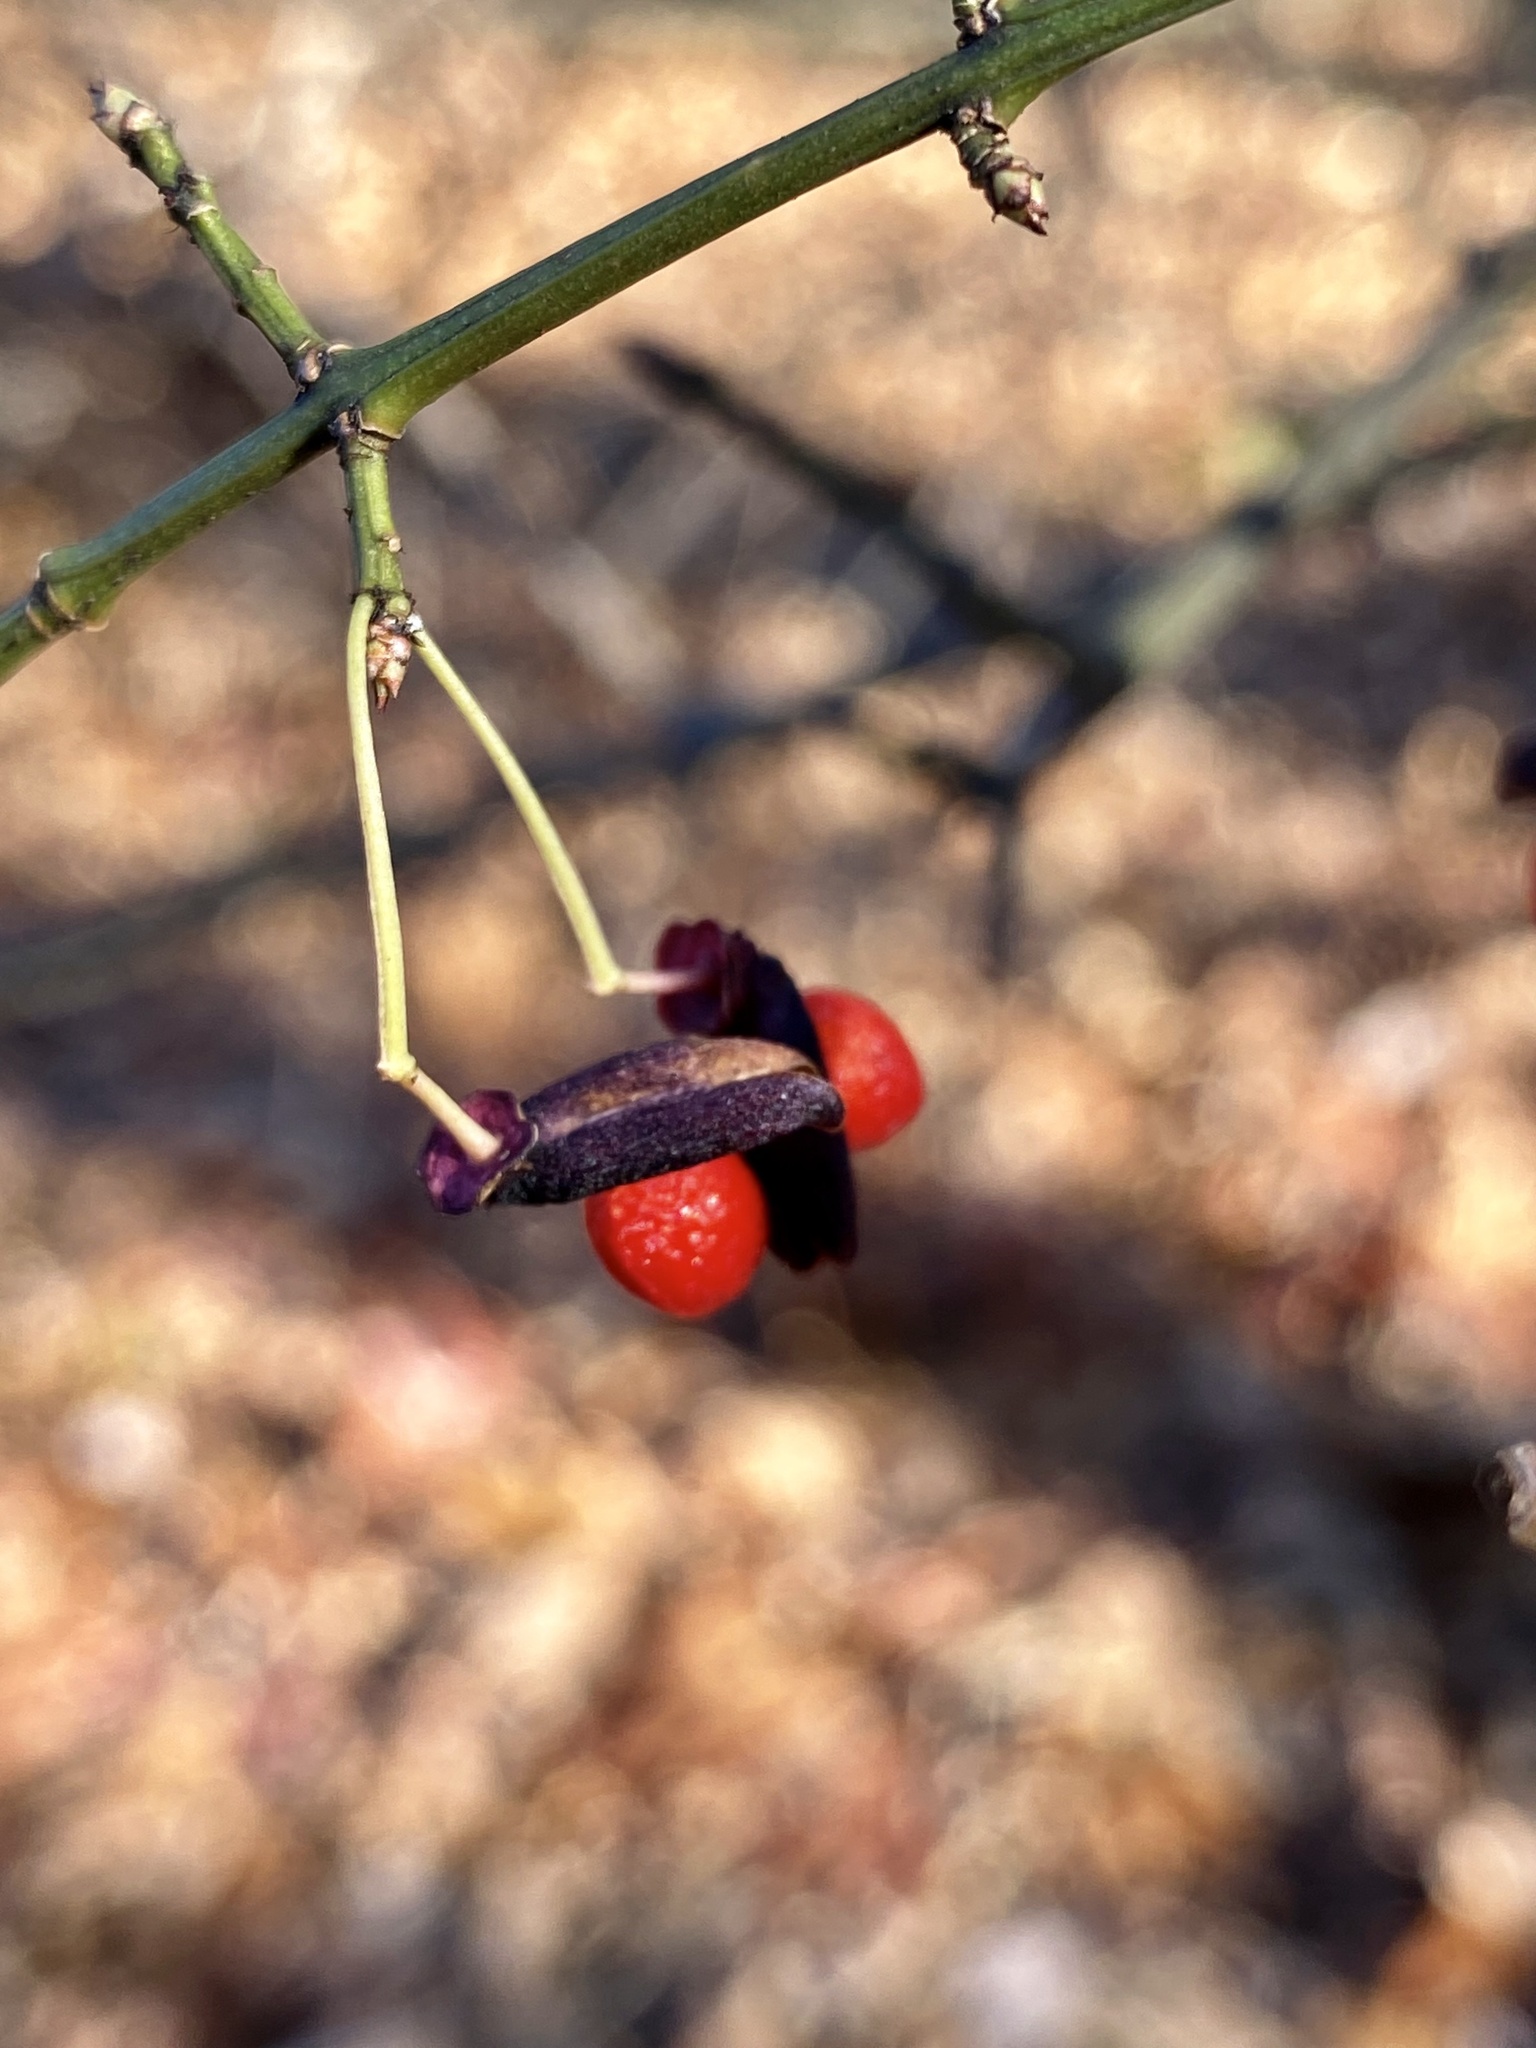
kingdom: Plantae
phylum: Tracheophyta
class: Magnoliopsida
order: Celastrales
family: Celastraceae
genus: Euonymus
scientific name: Euonymus alatus
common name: Winged euonymus
